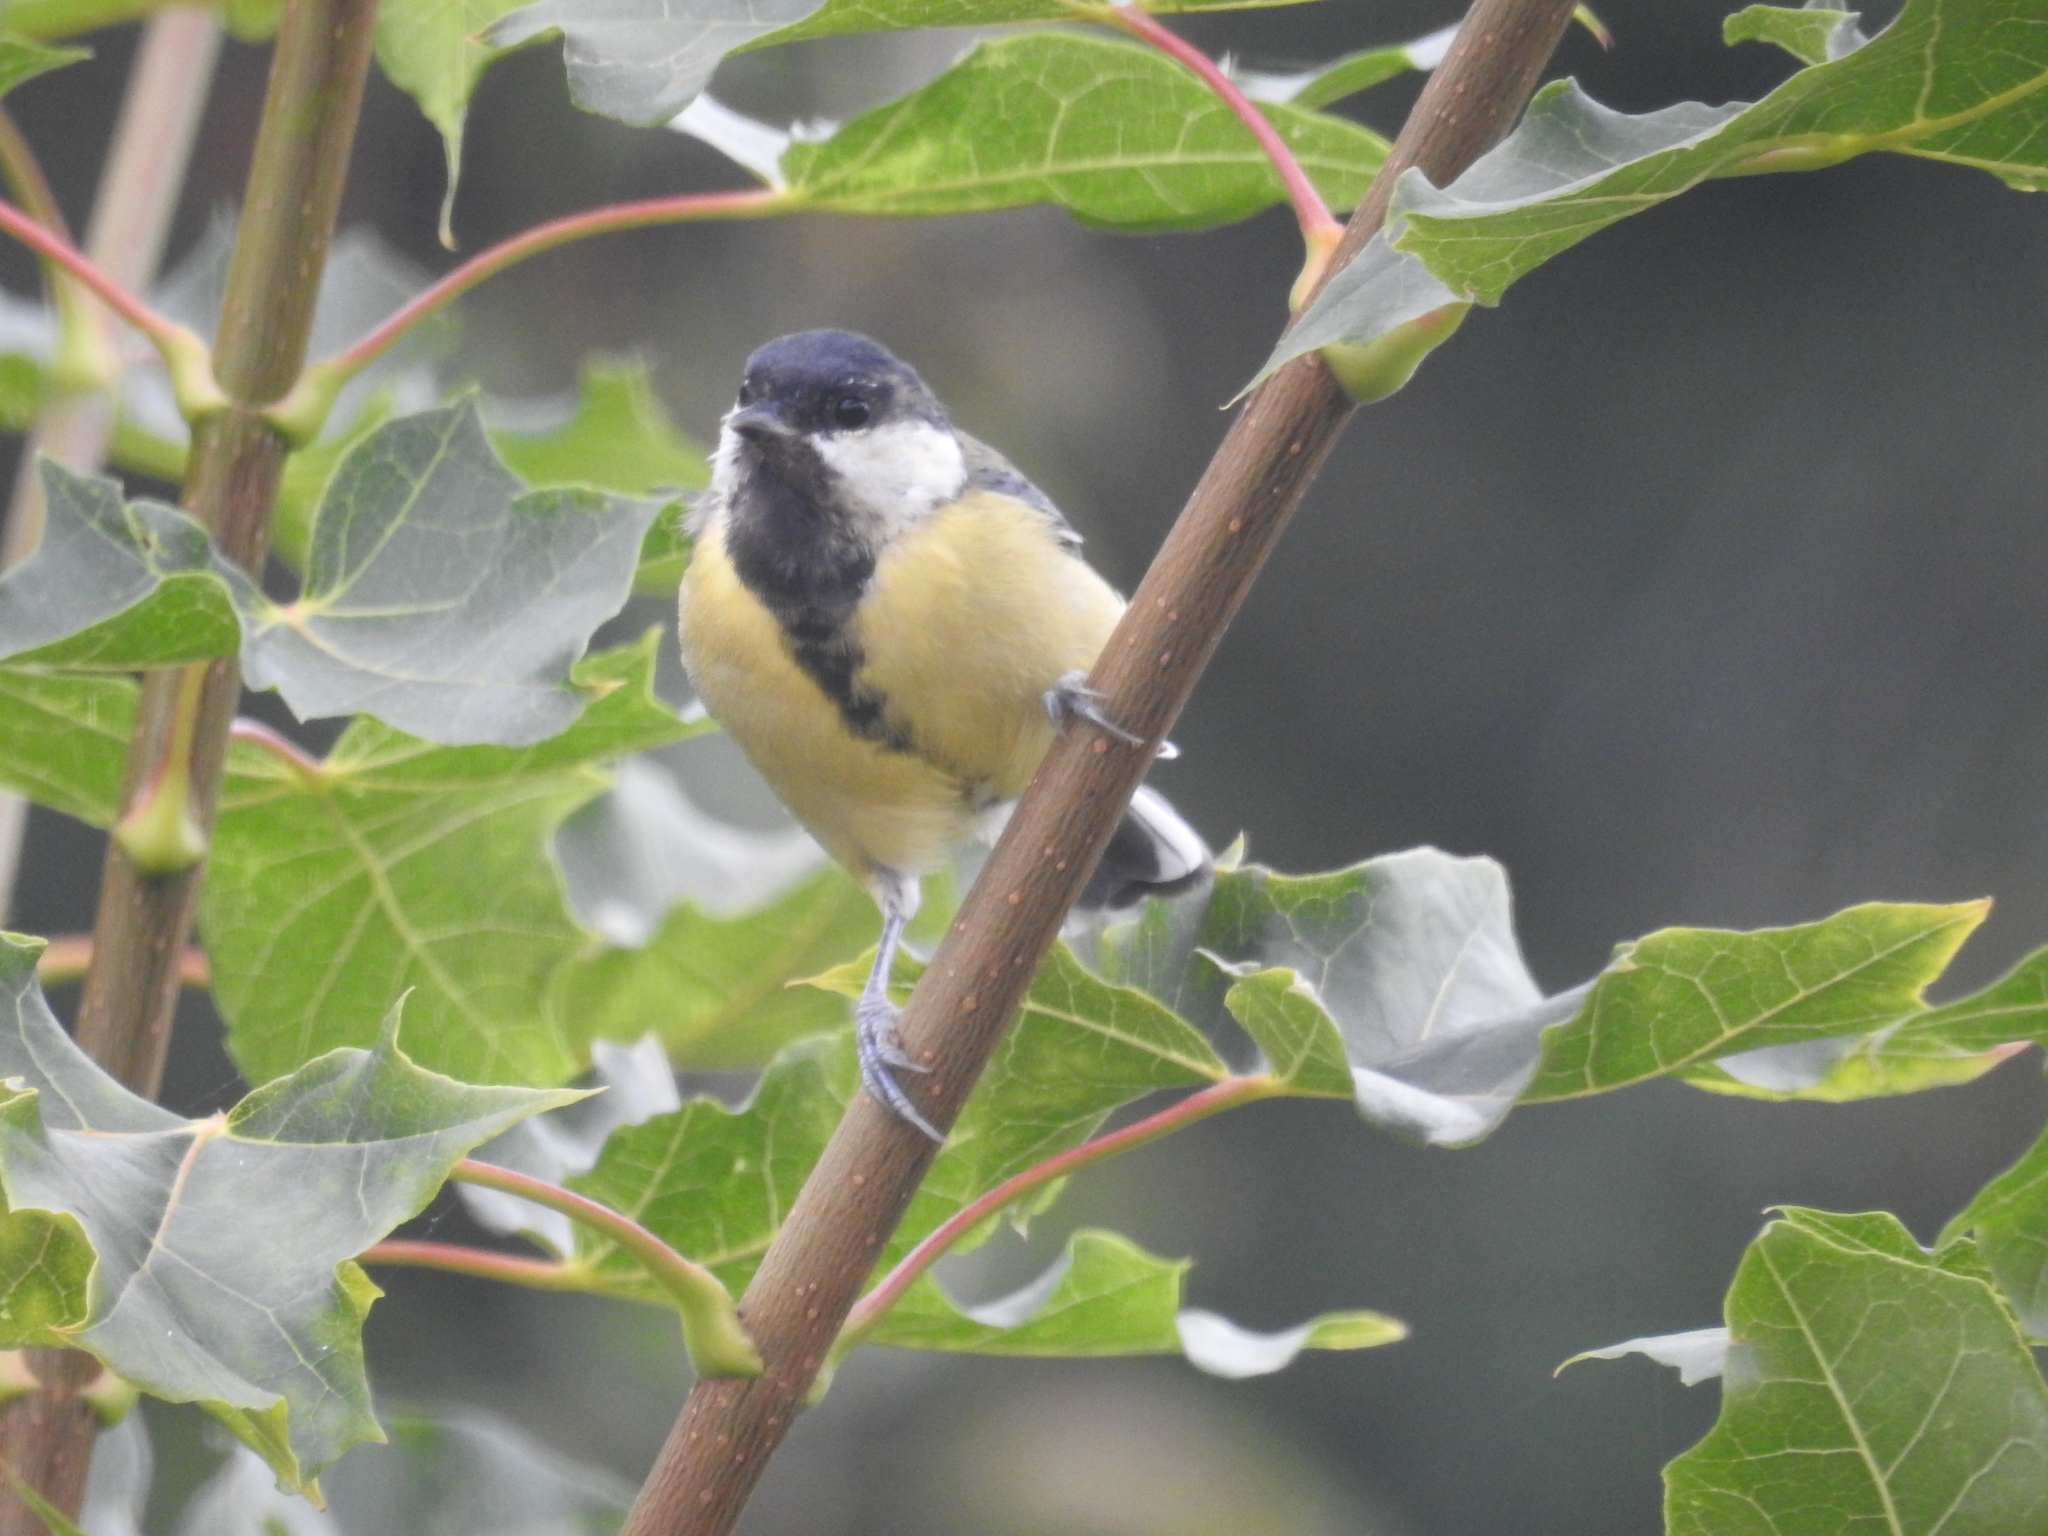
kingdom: Animalia
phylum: Chordata
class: Aves
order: Passeriformes
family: Paridae
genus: Parus
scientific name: Parus major
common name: Great tit
